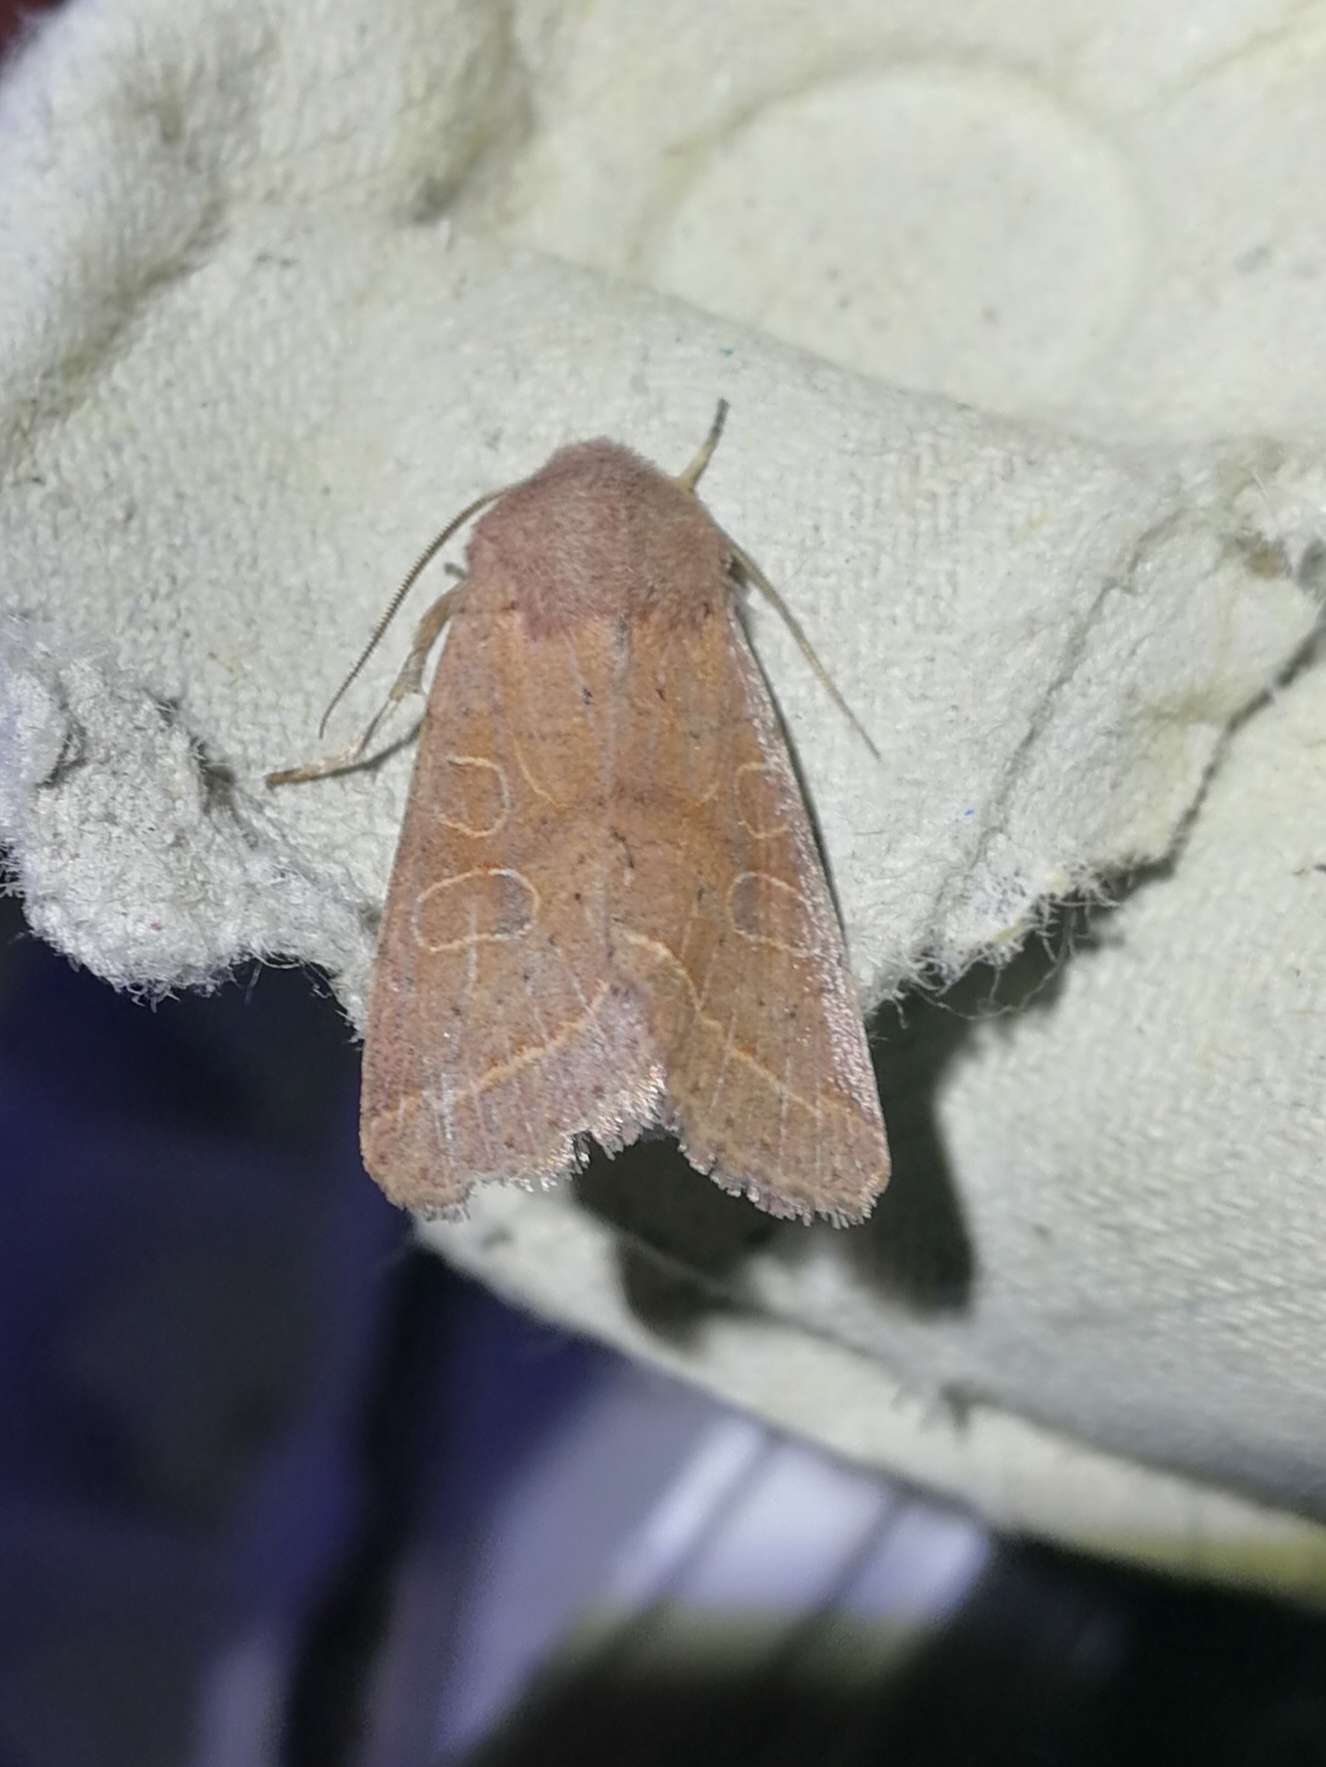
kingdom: Animalia
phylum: Arthropoda
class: Insecta
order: Lepidoptera
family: Noctuidae
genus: Orthosia
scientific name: Orthosia cerasi
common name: Common quaker
